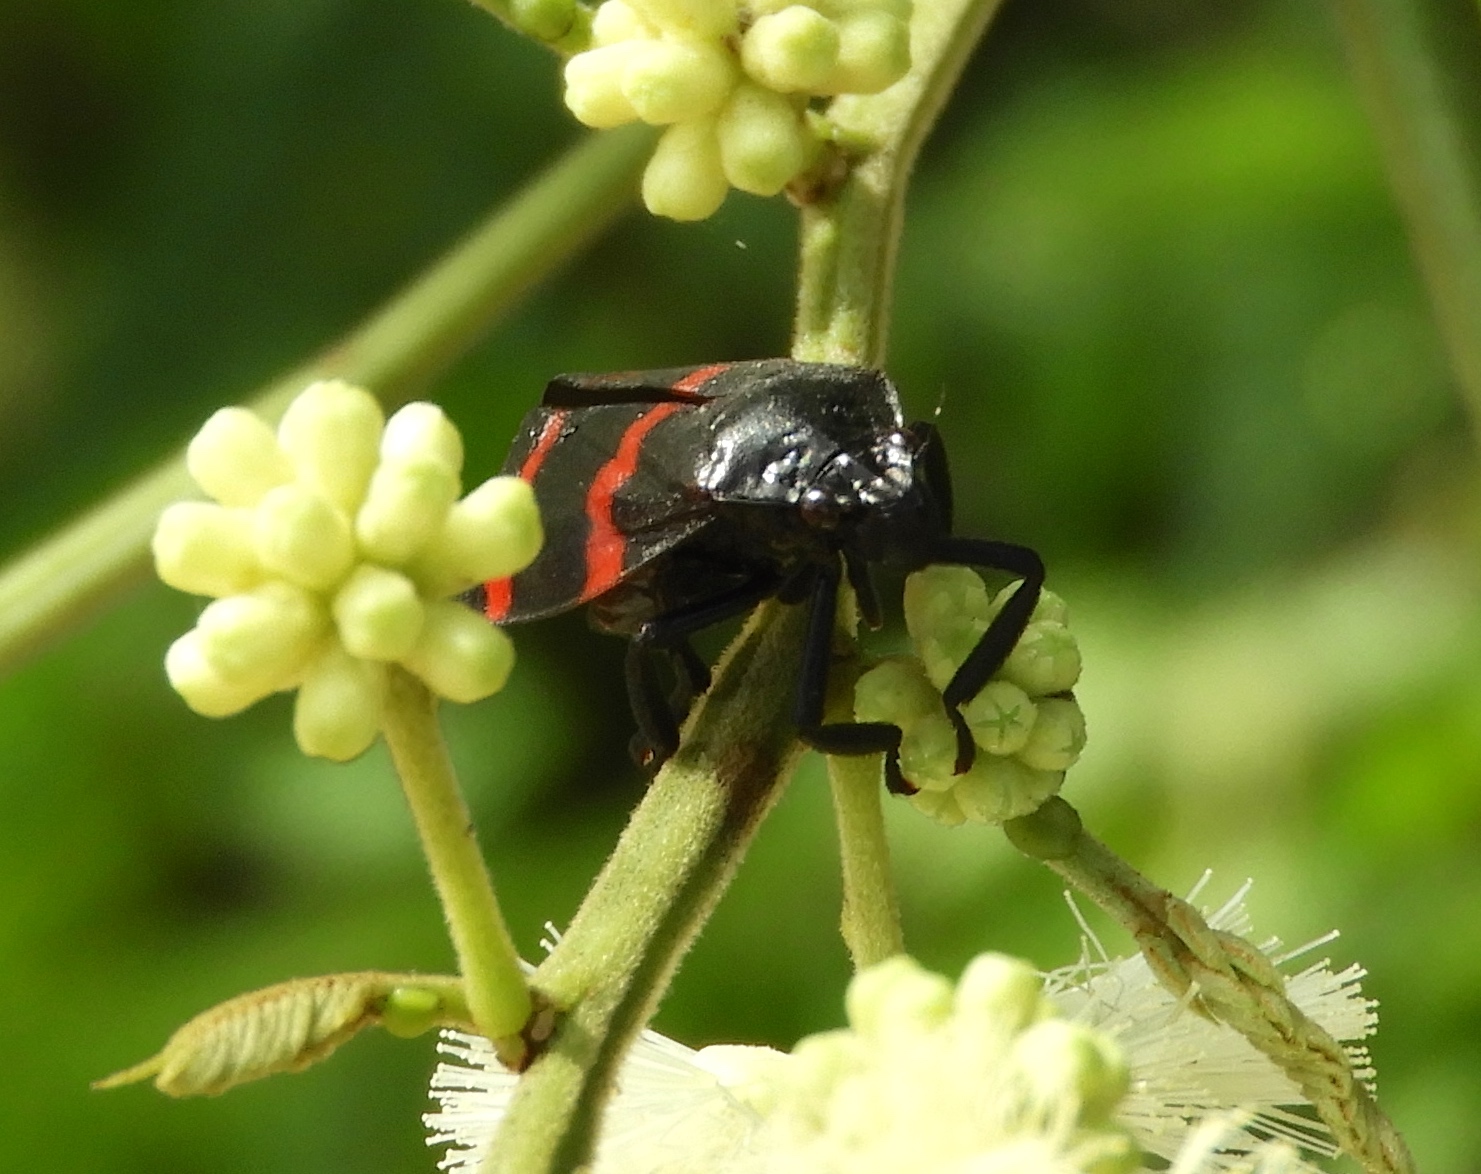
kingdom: Animalia
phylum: Arthropoda
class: Insecta
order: Hemiptera
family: Cercopidae
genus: Huaina
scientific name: Huaina inca
